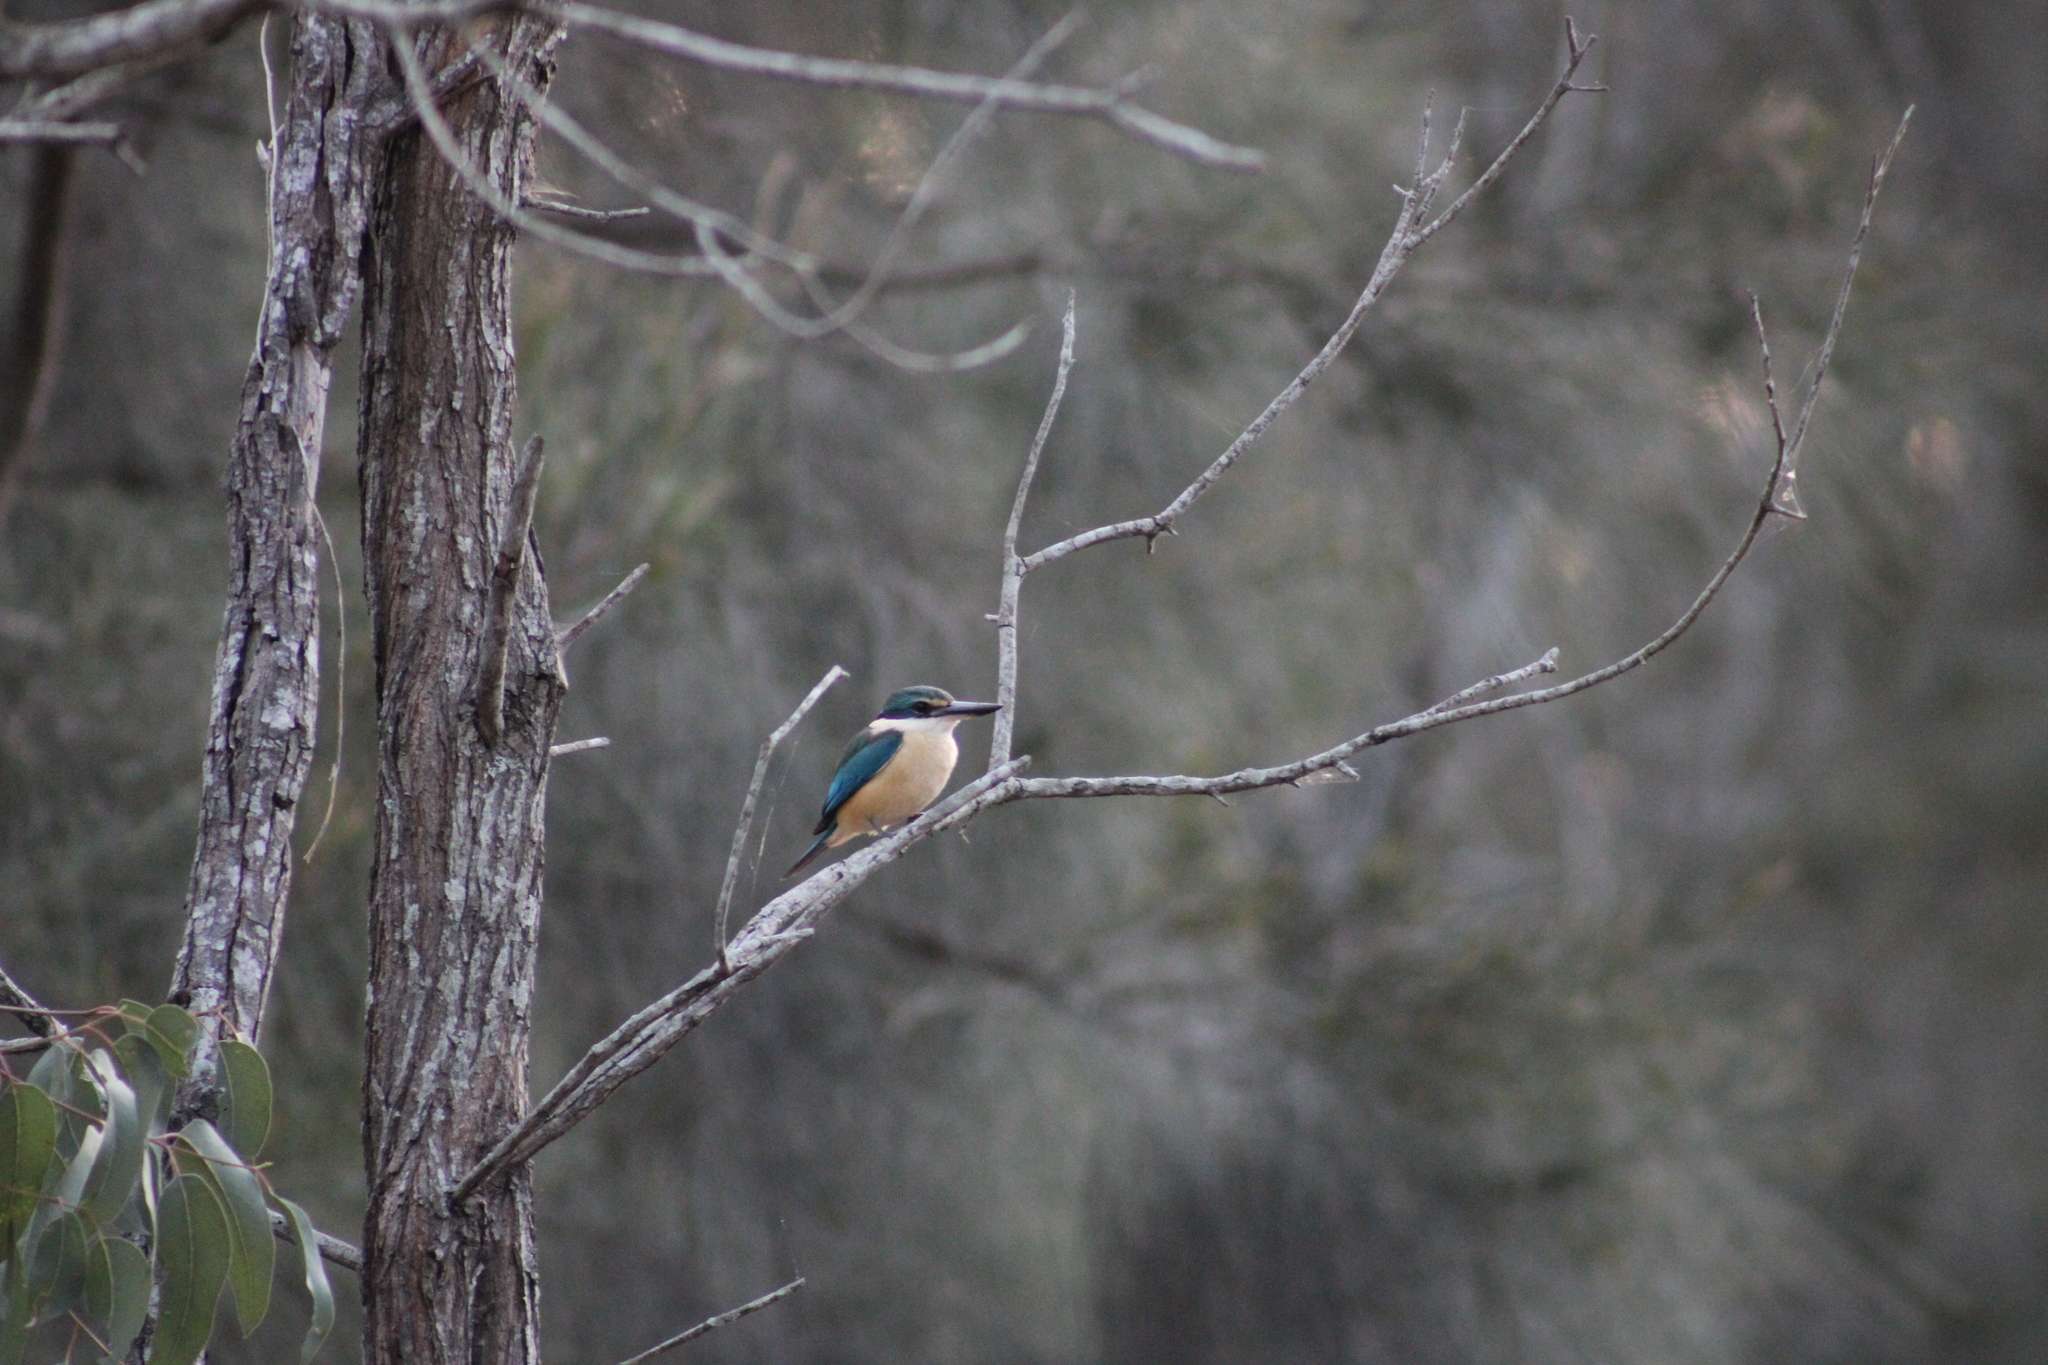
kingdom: Animalia
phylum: Chordata
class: Aves
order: Coraciiformes
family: Alcedinidae
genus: Todiramphus
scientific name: Todiramphus sanctus
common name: Sacred kingfisher
